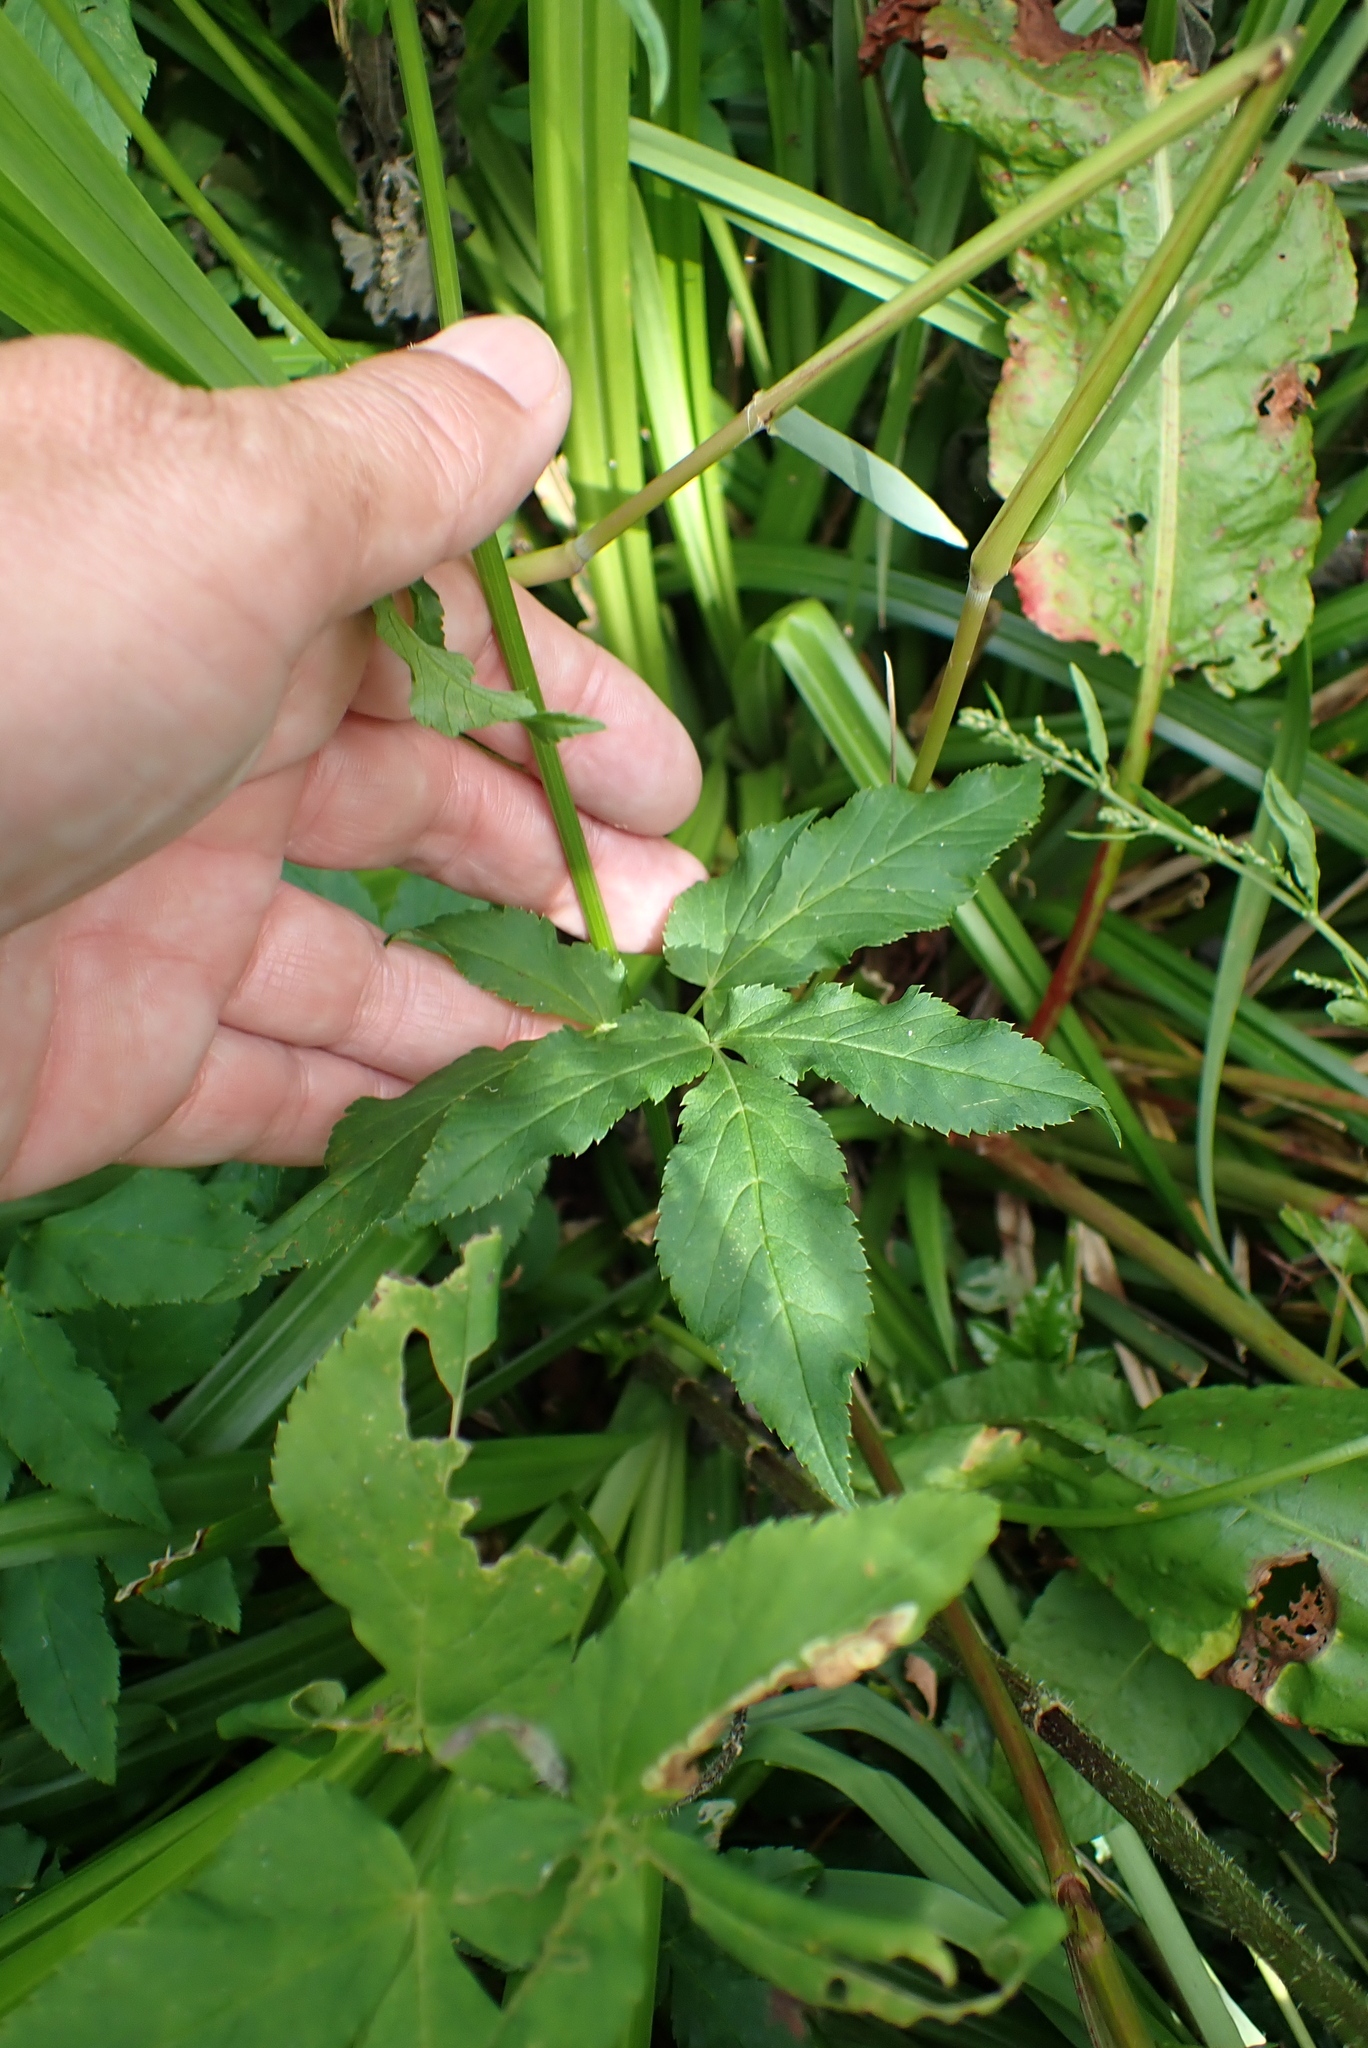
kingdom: Plantae
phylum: Tracheophyta
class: Magnoliopsida
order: Apiales
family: Apiaceae
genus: Aegopodium
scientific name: Aegopodium podagraria
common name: Ground-elder
